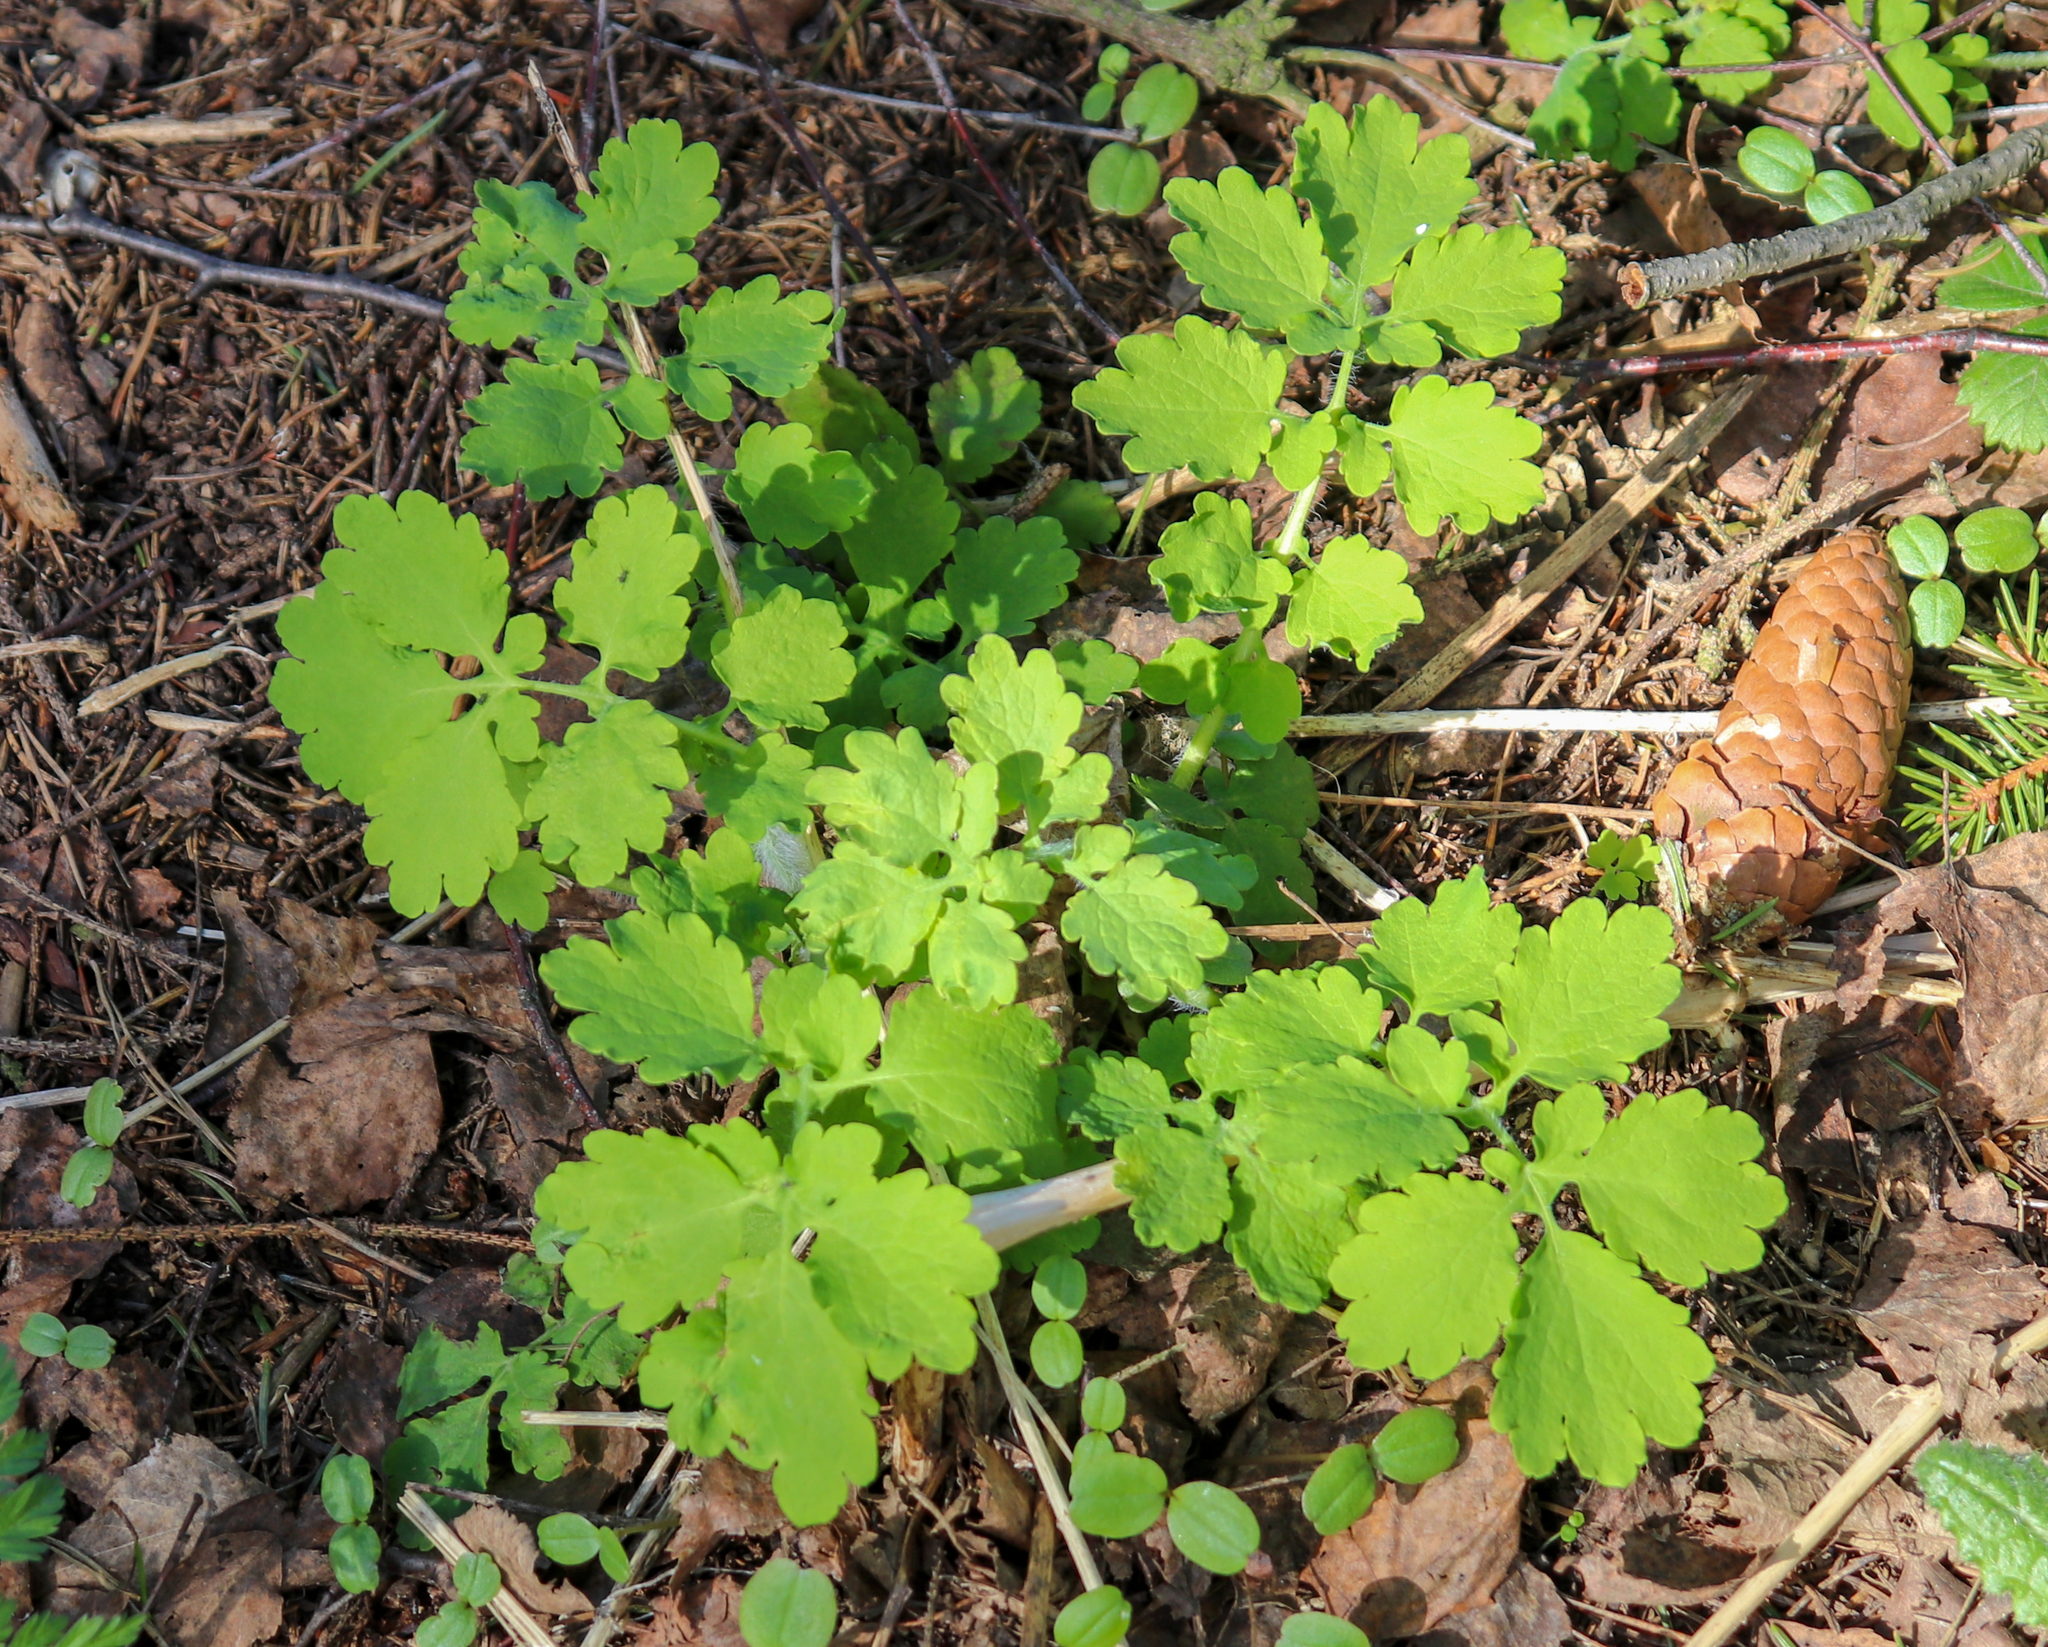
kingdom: Plantae
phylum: Tracheophyta
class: Magnoliopsida
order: Ranunculales
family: Papaveraceae
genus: Chelidonium
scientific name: Chelidonium majus
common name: Greater celandine
